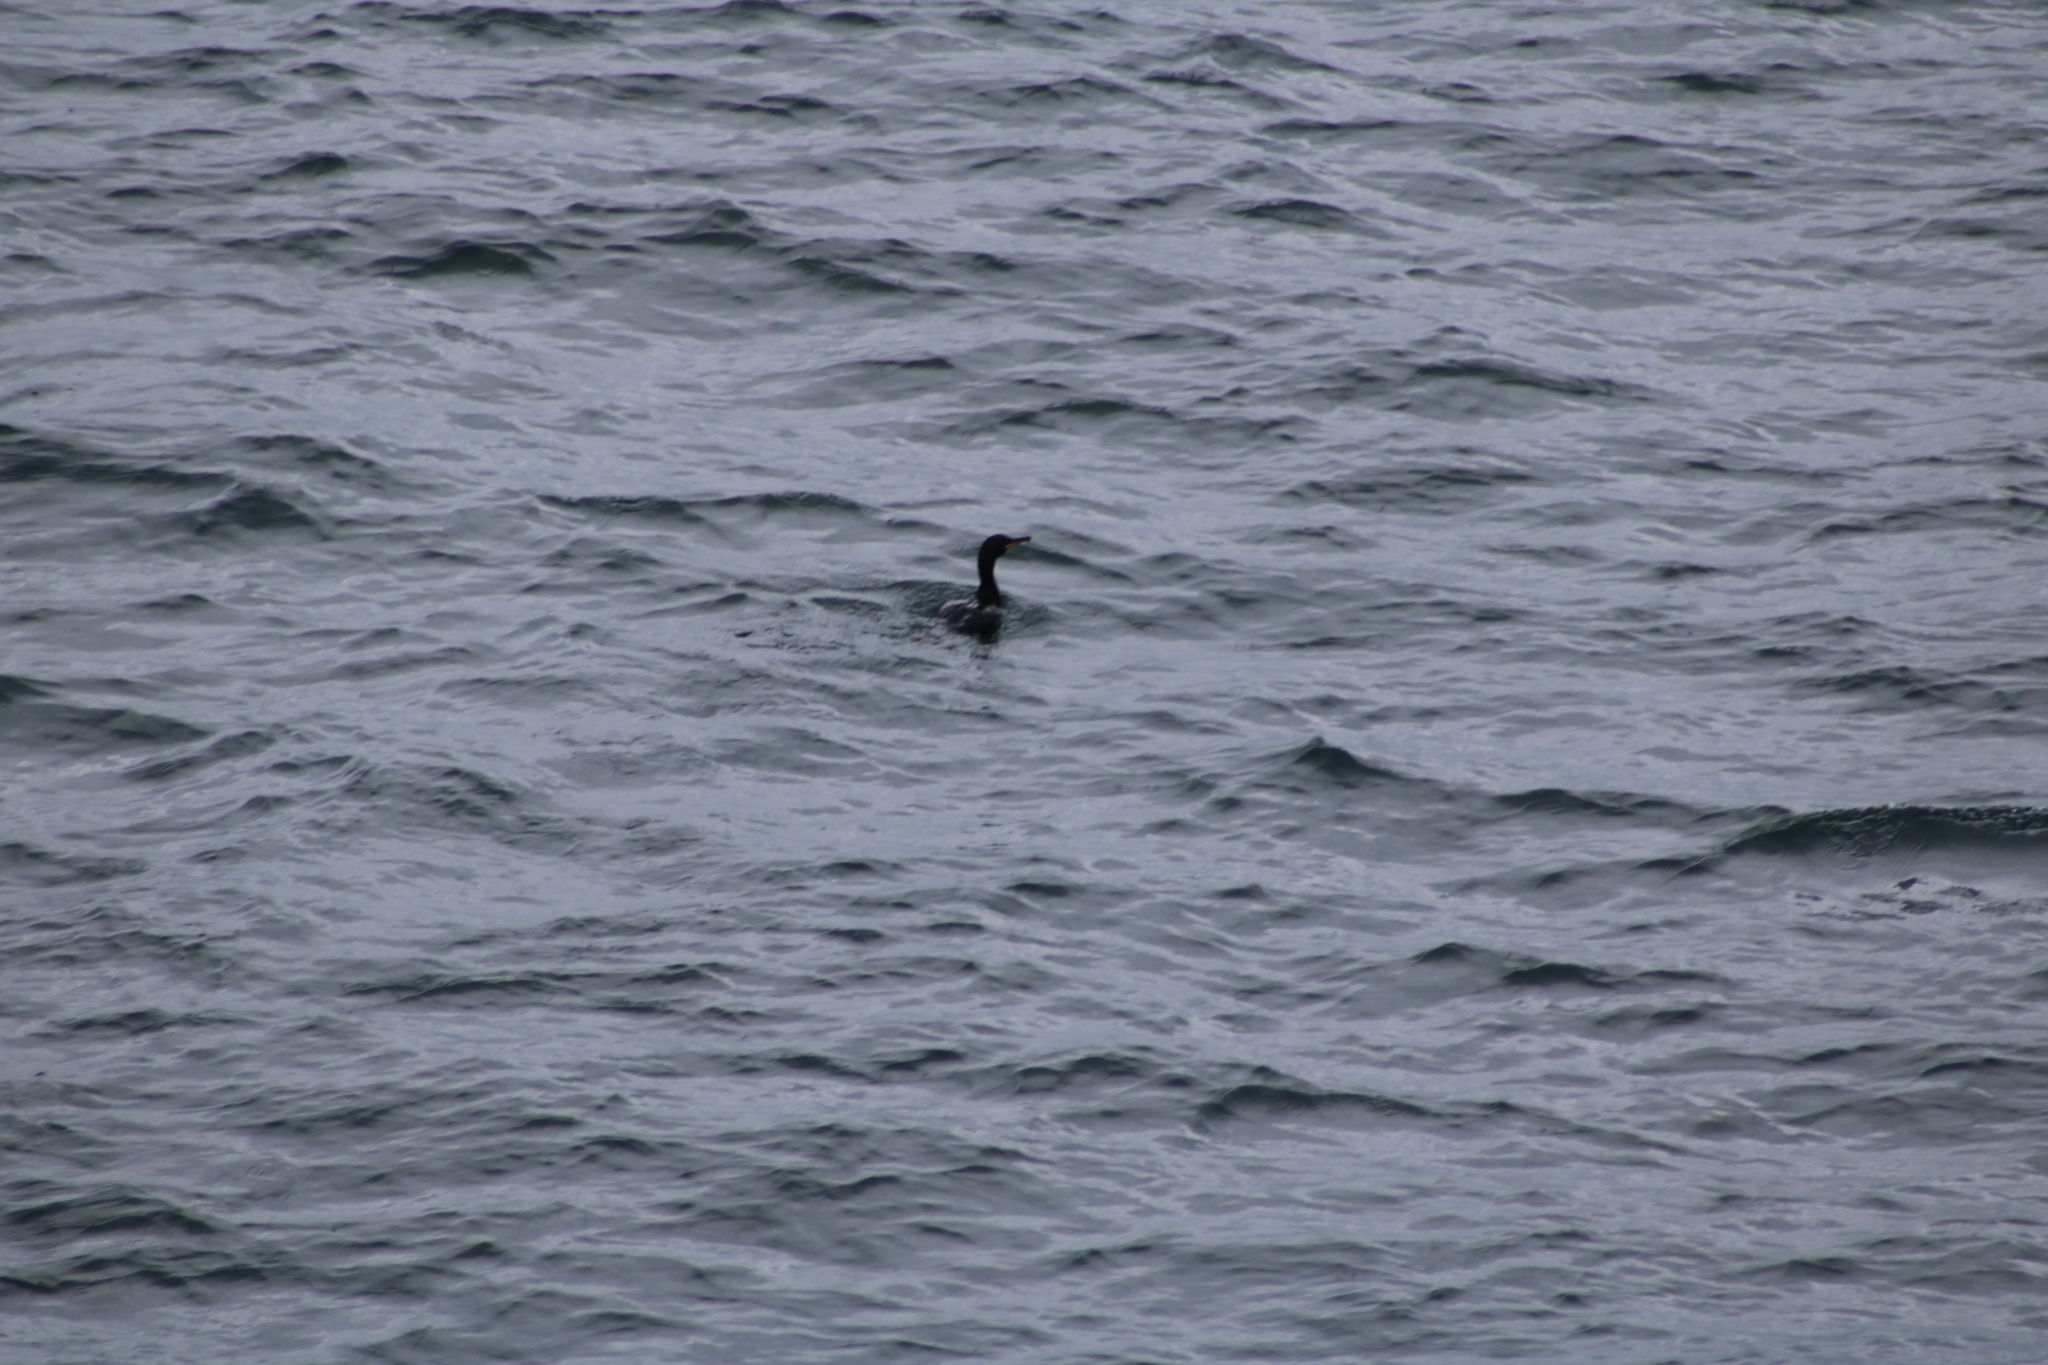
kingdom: Animalia
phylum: Chordata
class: Aves
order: Suliformes
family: Phalacrocoracidae
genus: Phalacrocorax
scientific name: Phalacrocorax aristotelis
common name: European shag
